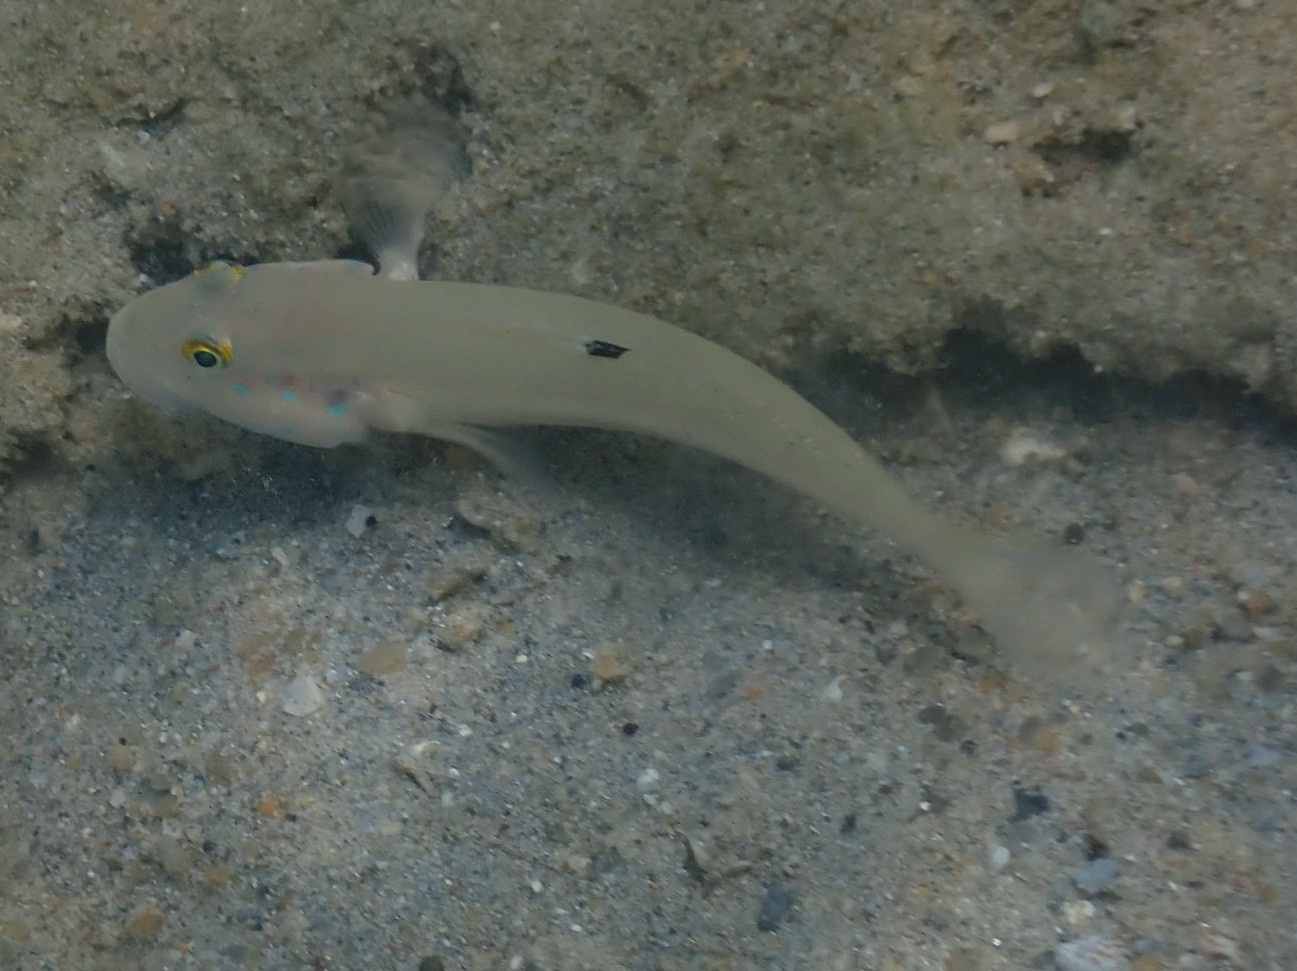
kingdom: Animalia
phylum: Chordata
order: Perciformes
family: Gobiidae
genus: Valenciennea
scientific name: Valenciennea sexguttata
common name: Sixspot goby
